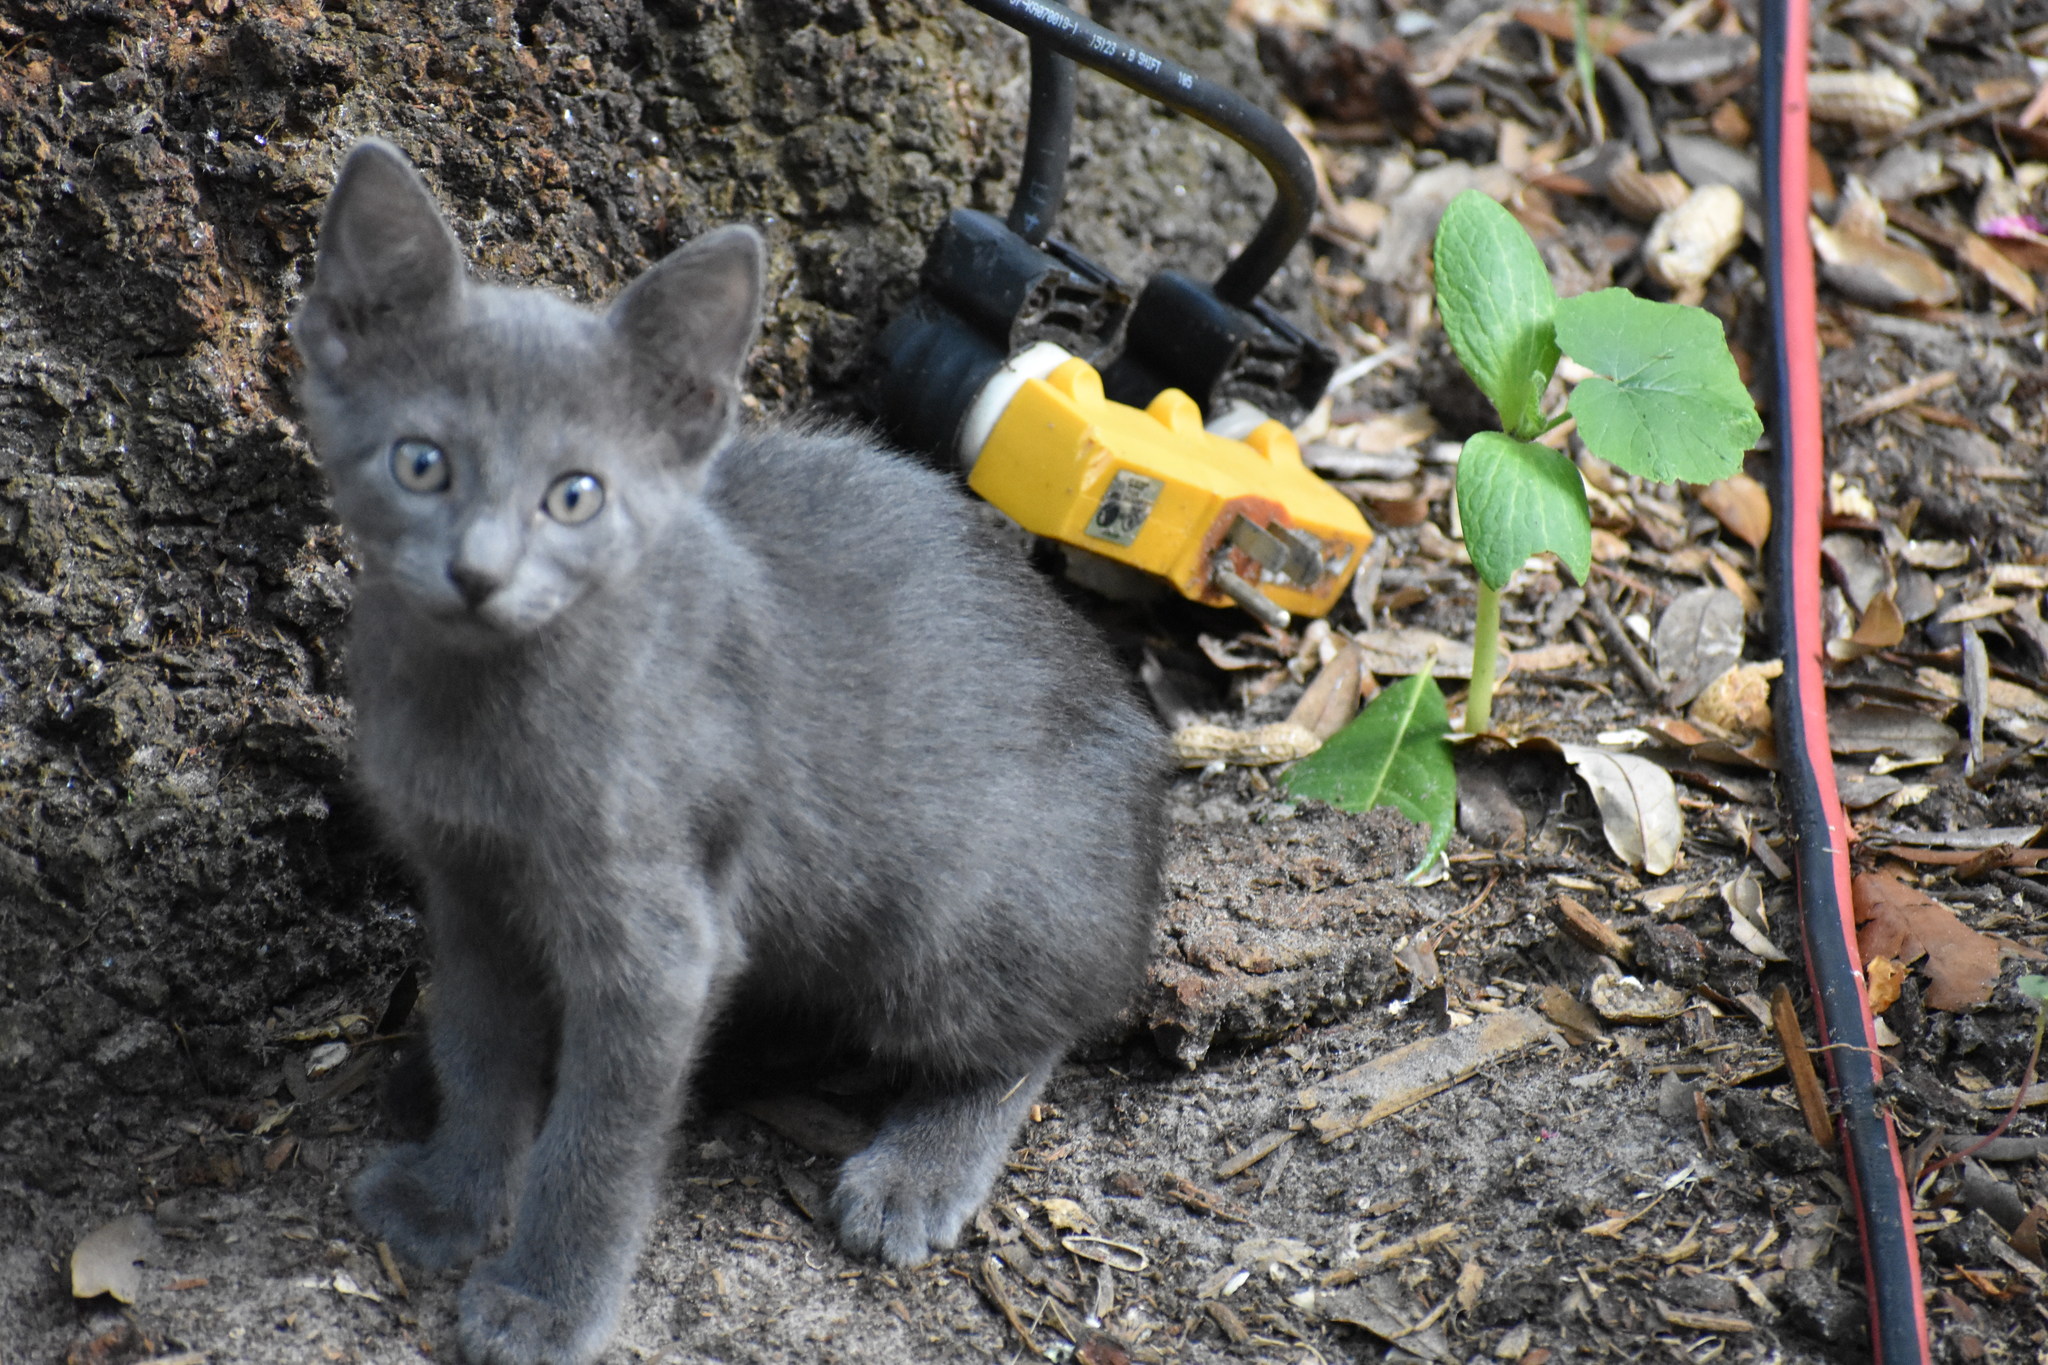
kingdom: Animalia
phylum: Chordata
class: Mammalia
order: Carnivora
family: Felidae
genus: Felis
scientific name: Felis catus
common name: Domestic cat
